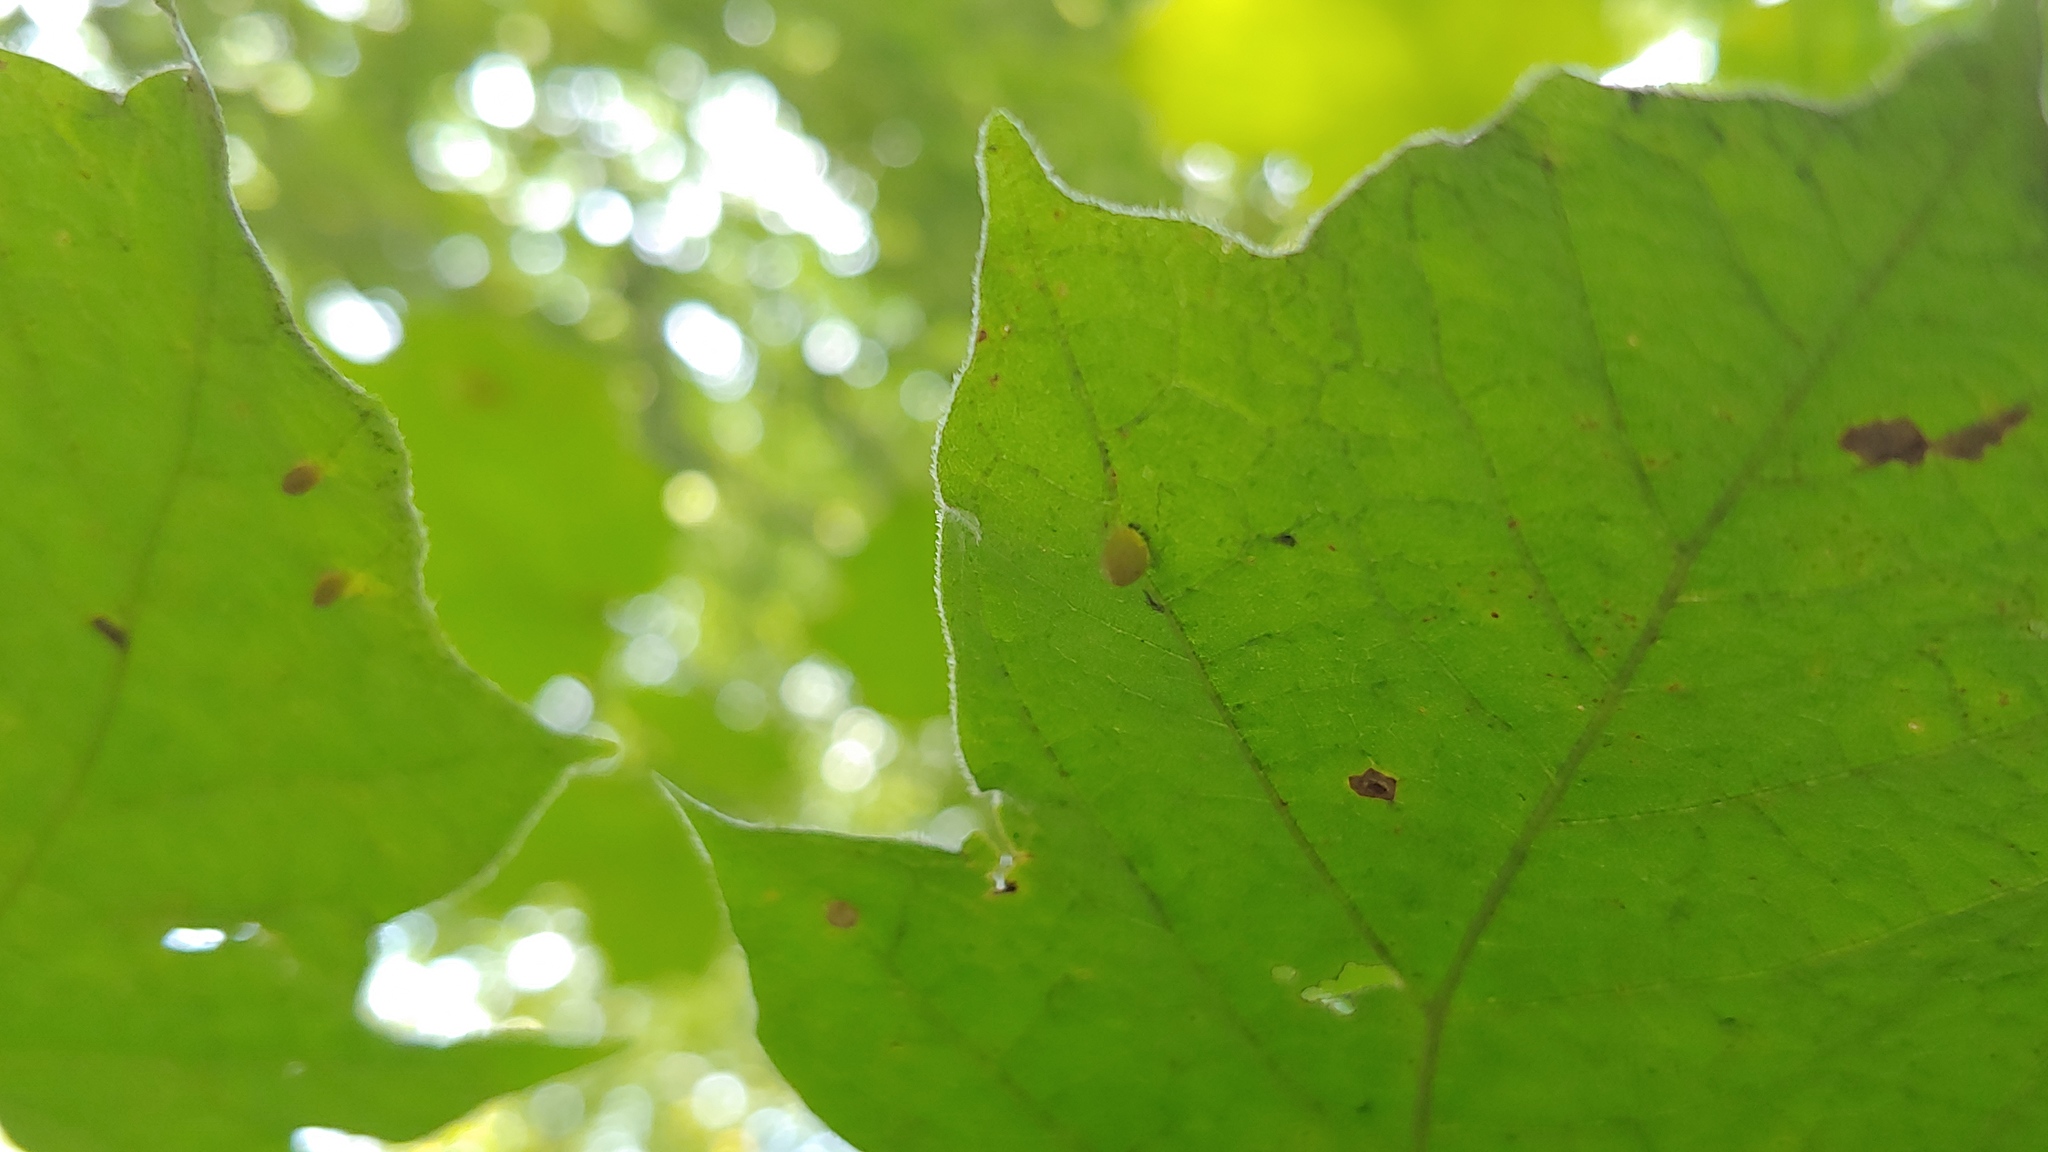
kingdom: Animalia
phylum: Arthropoda
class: Arachnida
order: Trombidiformes
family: Eriophyidae
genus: Vasates
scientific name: Vasates aceriscrumena
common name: Maple spindle gall mite
